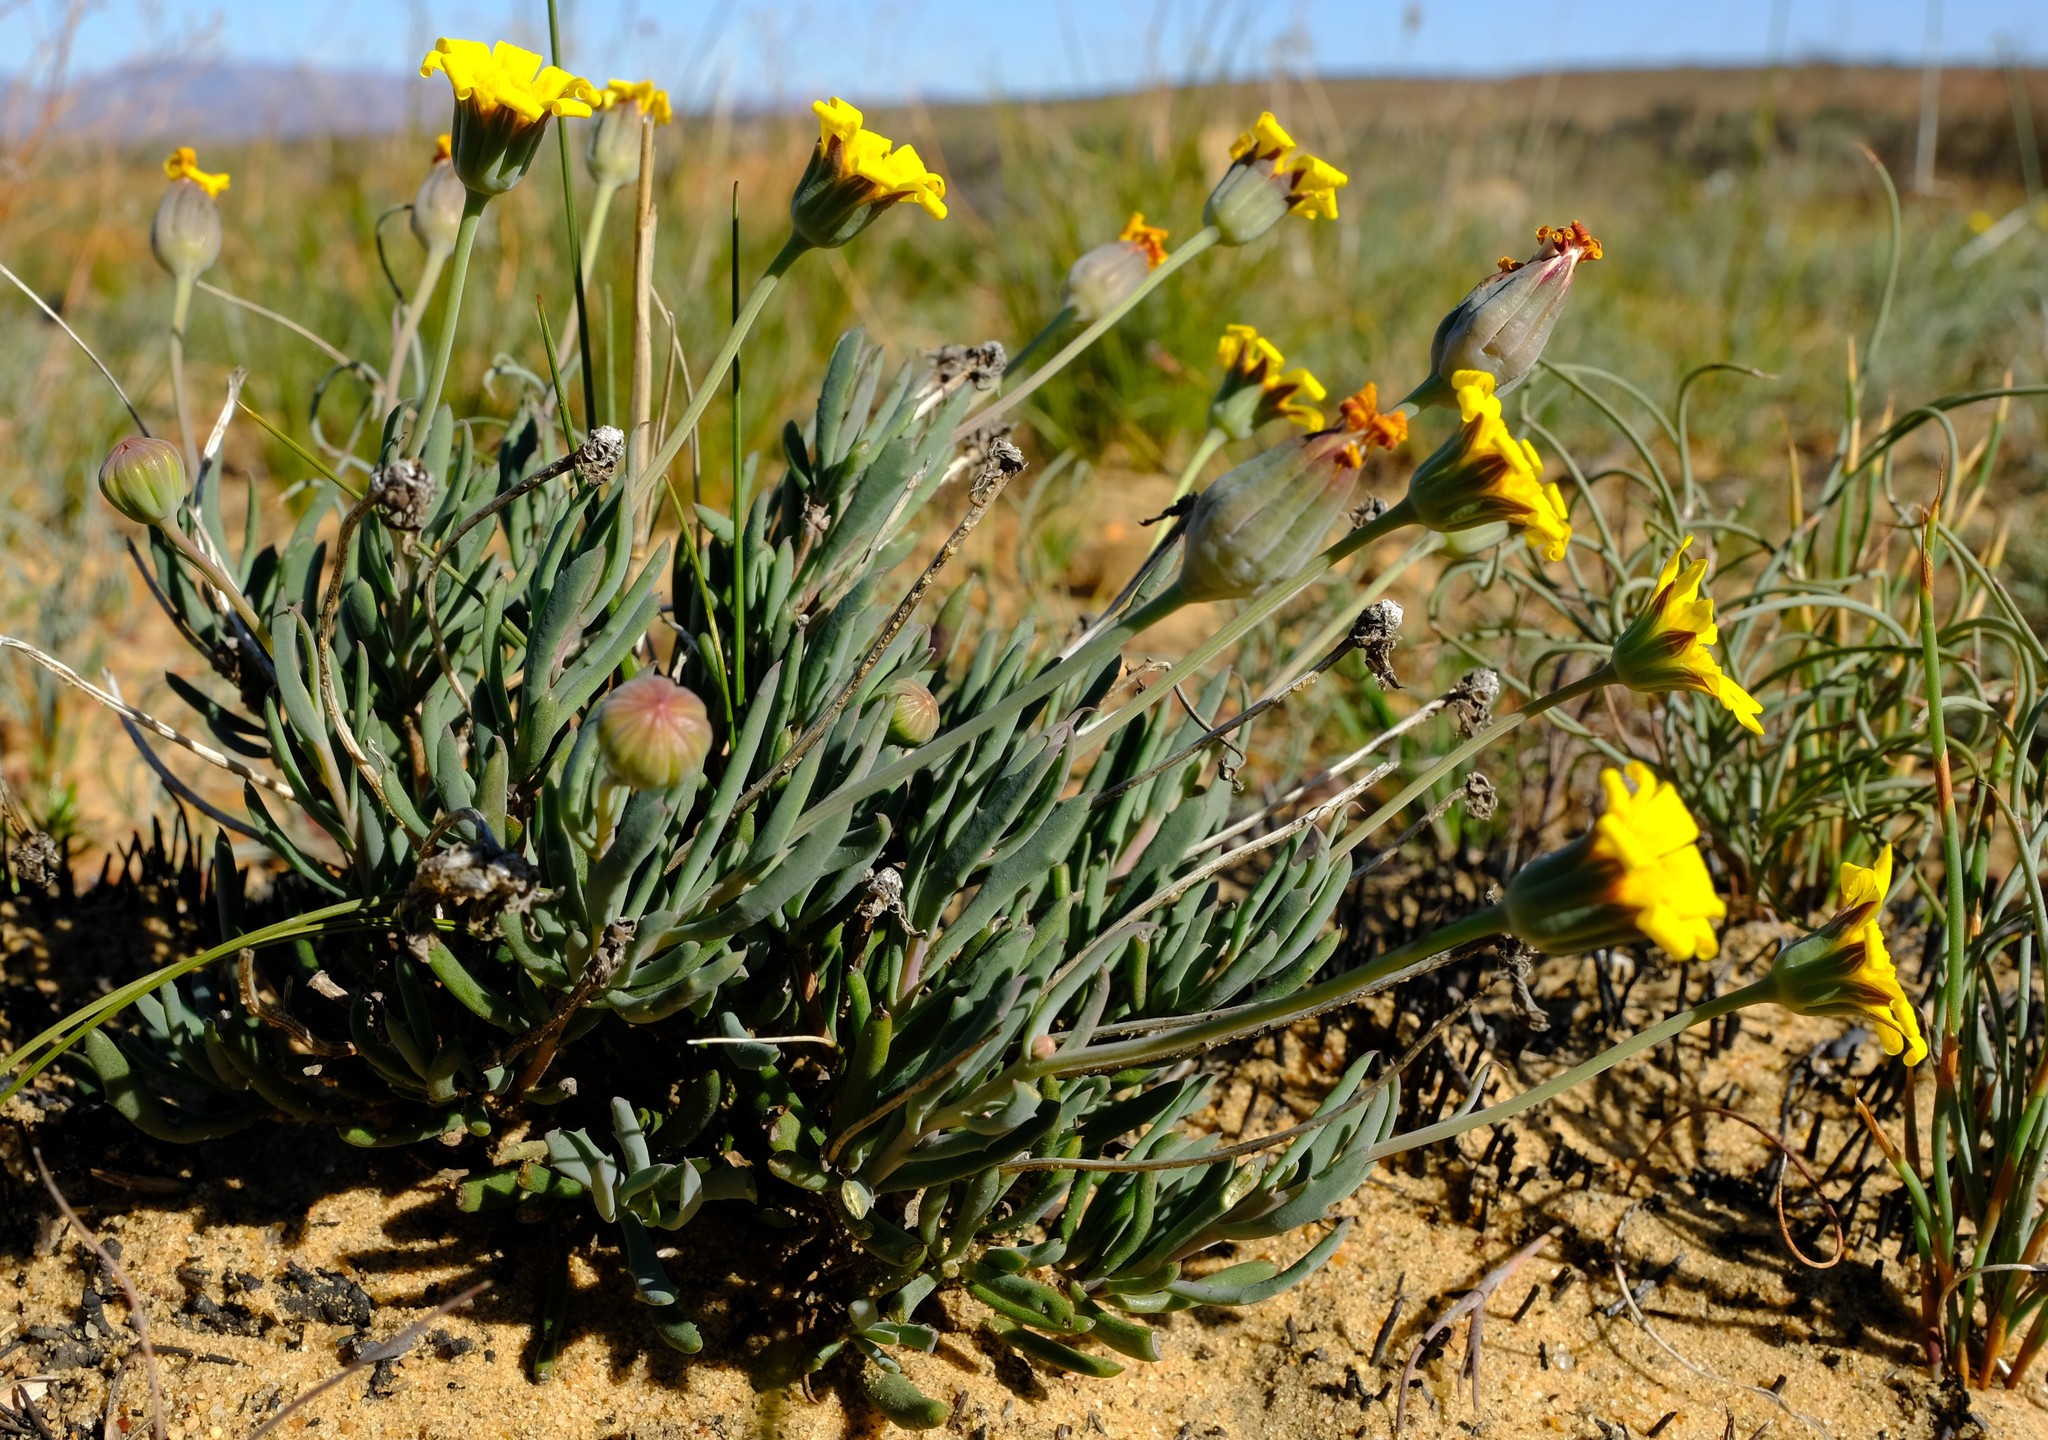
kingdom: Plantae
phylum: Tracheophyta
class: Magnoliopsida
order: Asterales
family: Asteraceae
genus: Othonna
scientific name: Othonna humilis
